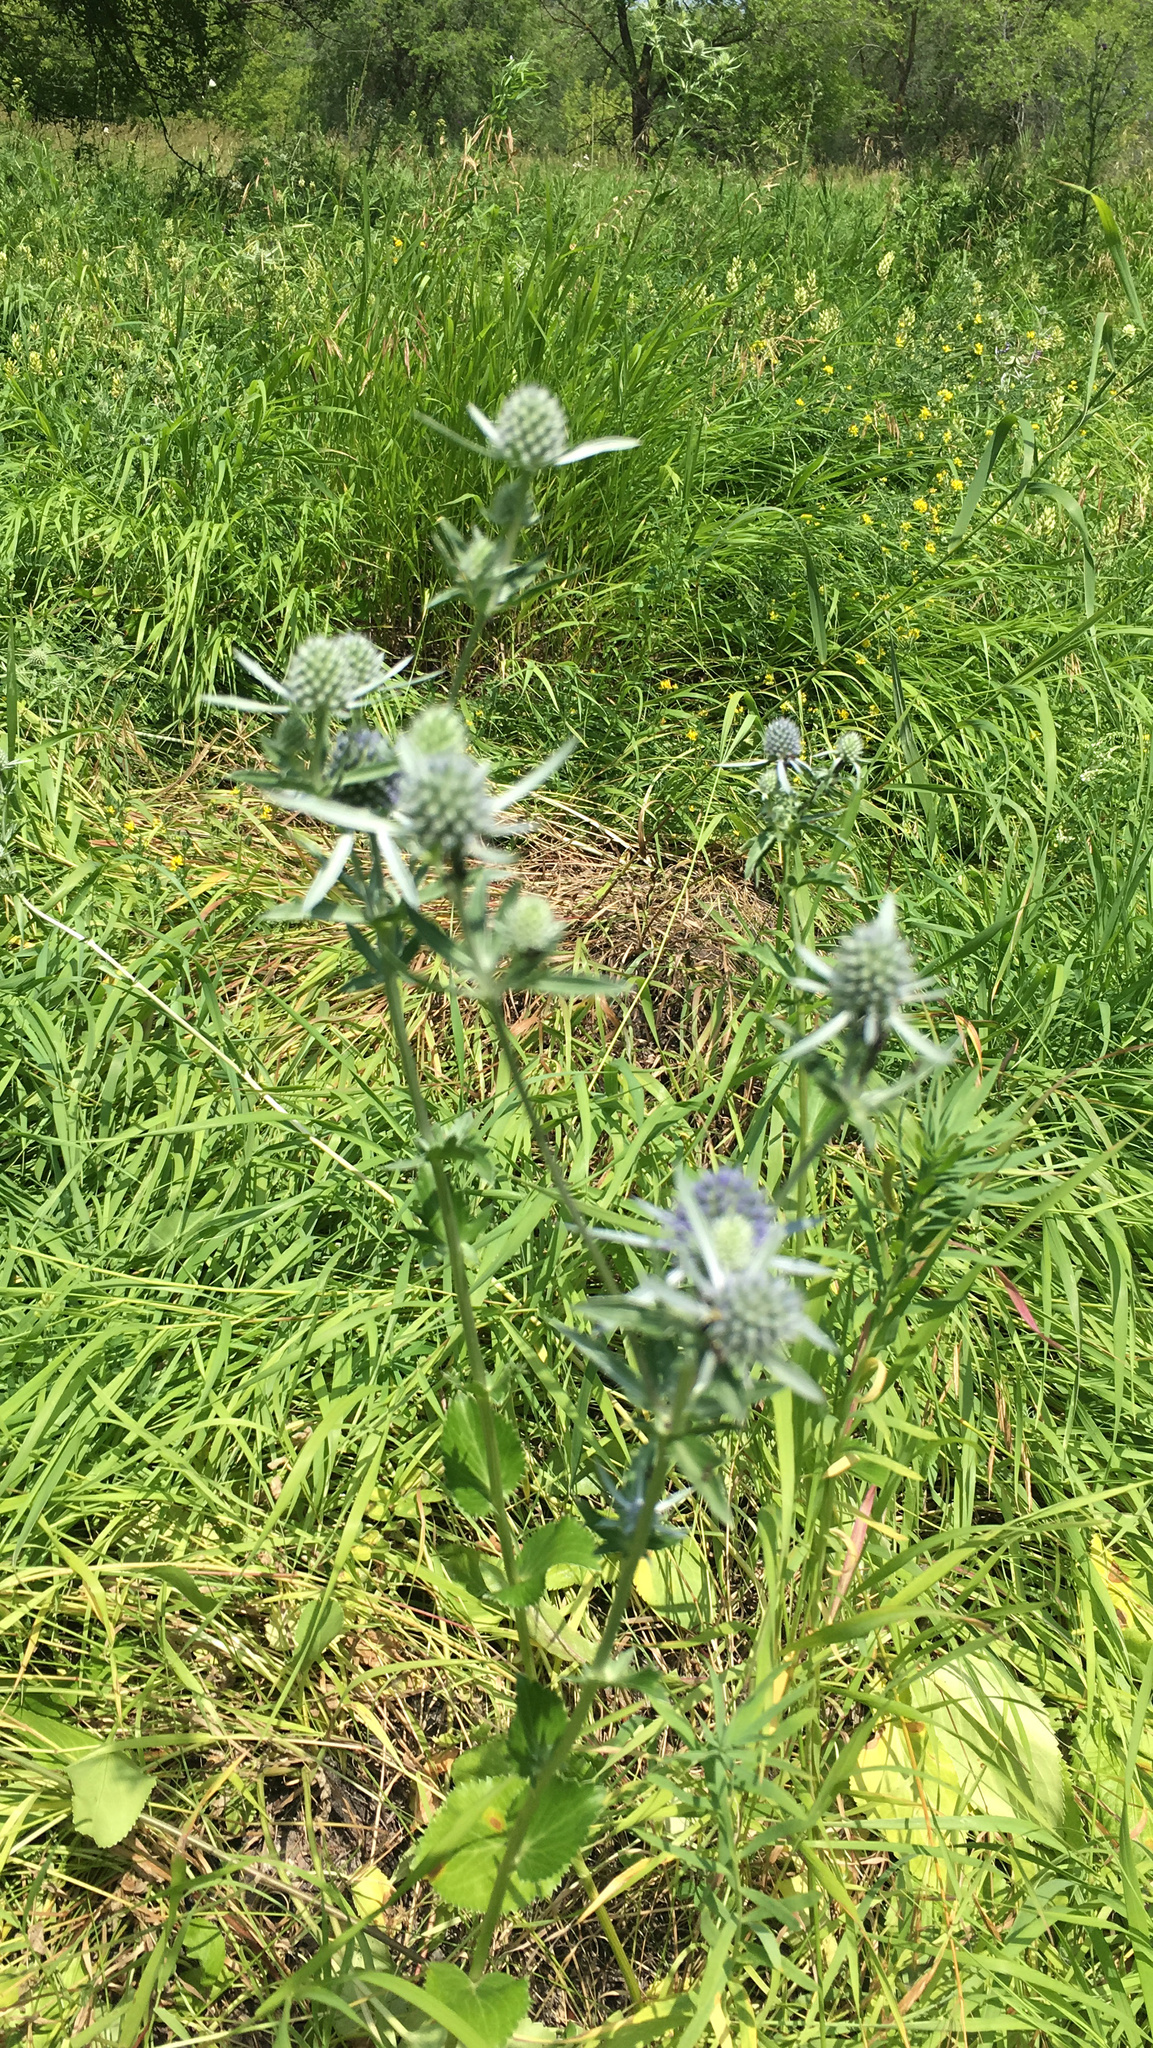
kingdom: Plantae
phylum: Tracheophyta
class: Magnoliopsida
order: Apiales
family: Apiaceae
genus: Eryngium
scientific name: Eryngium planum
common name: Blue eryngo
